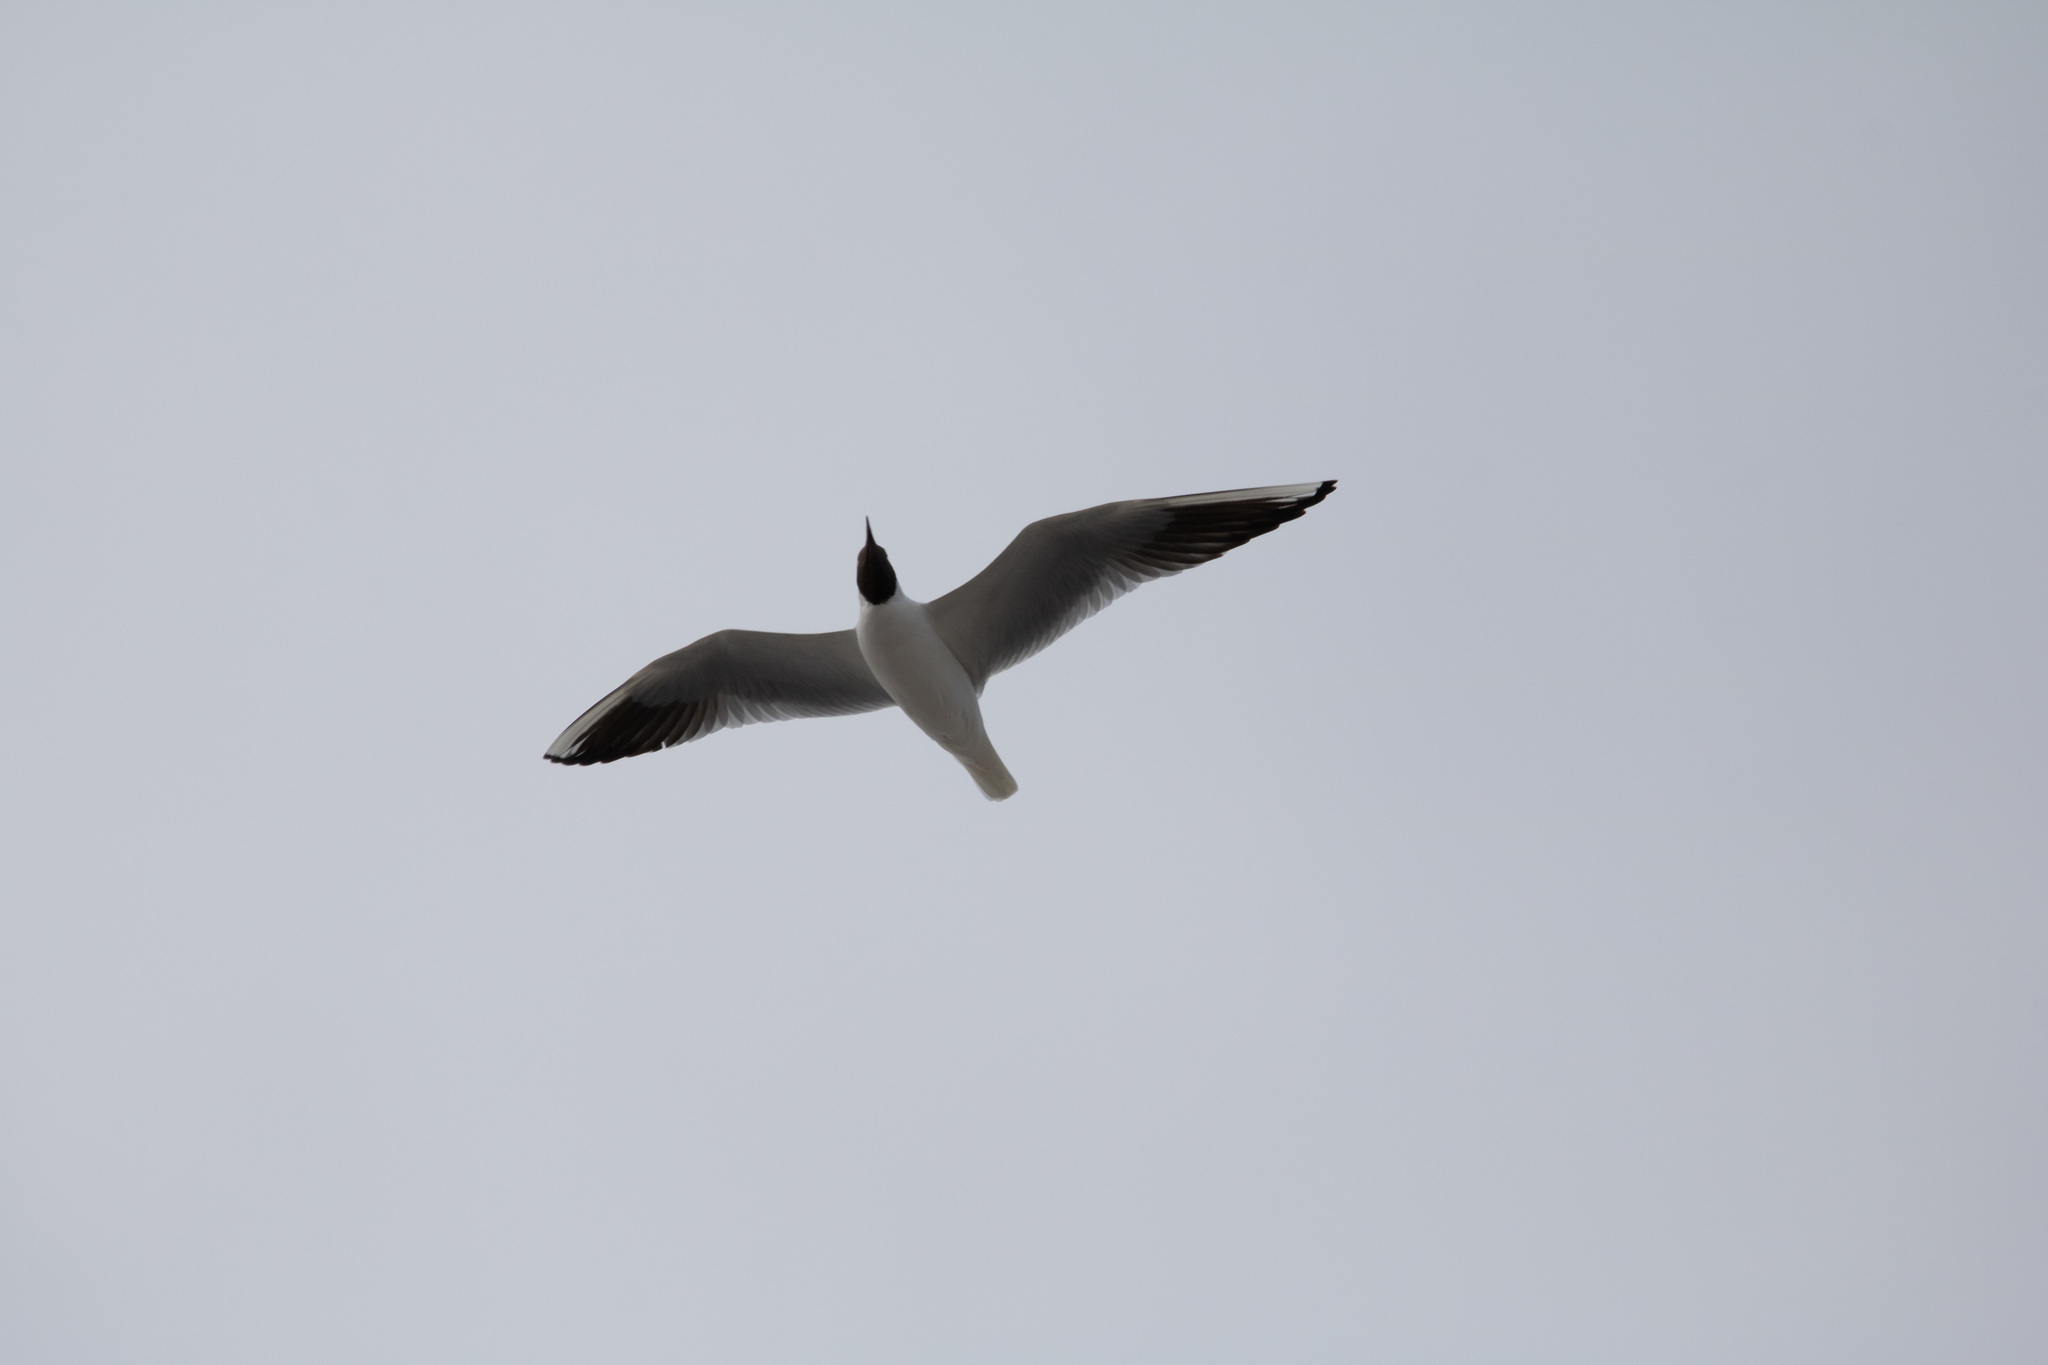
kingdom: Animalia
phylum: Chordata
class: Aves
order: Charadriiformes
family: Laridae
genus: Chroicocephalus
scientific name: Chroicocephalus ridibundus
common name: Black-headed gull
